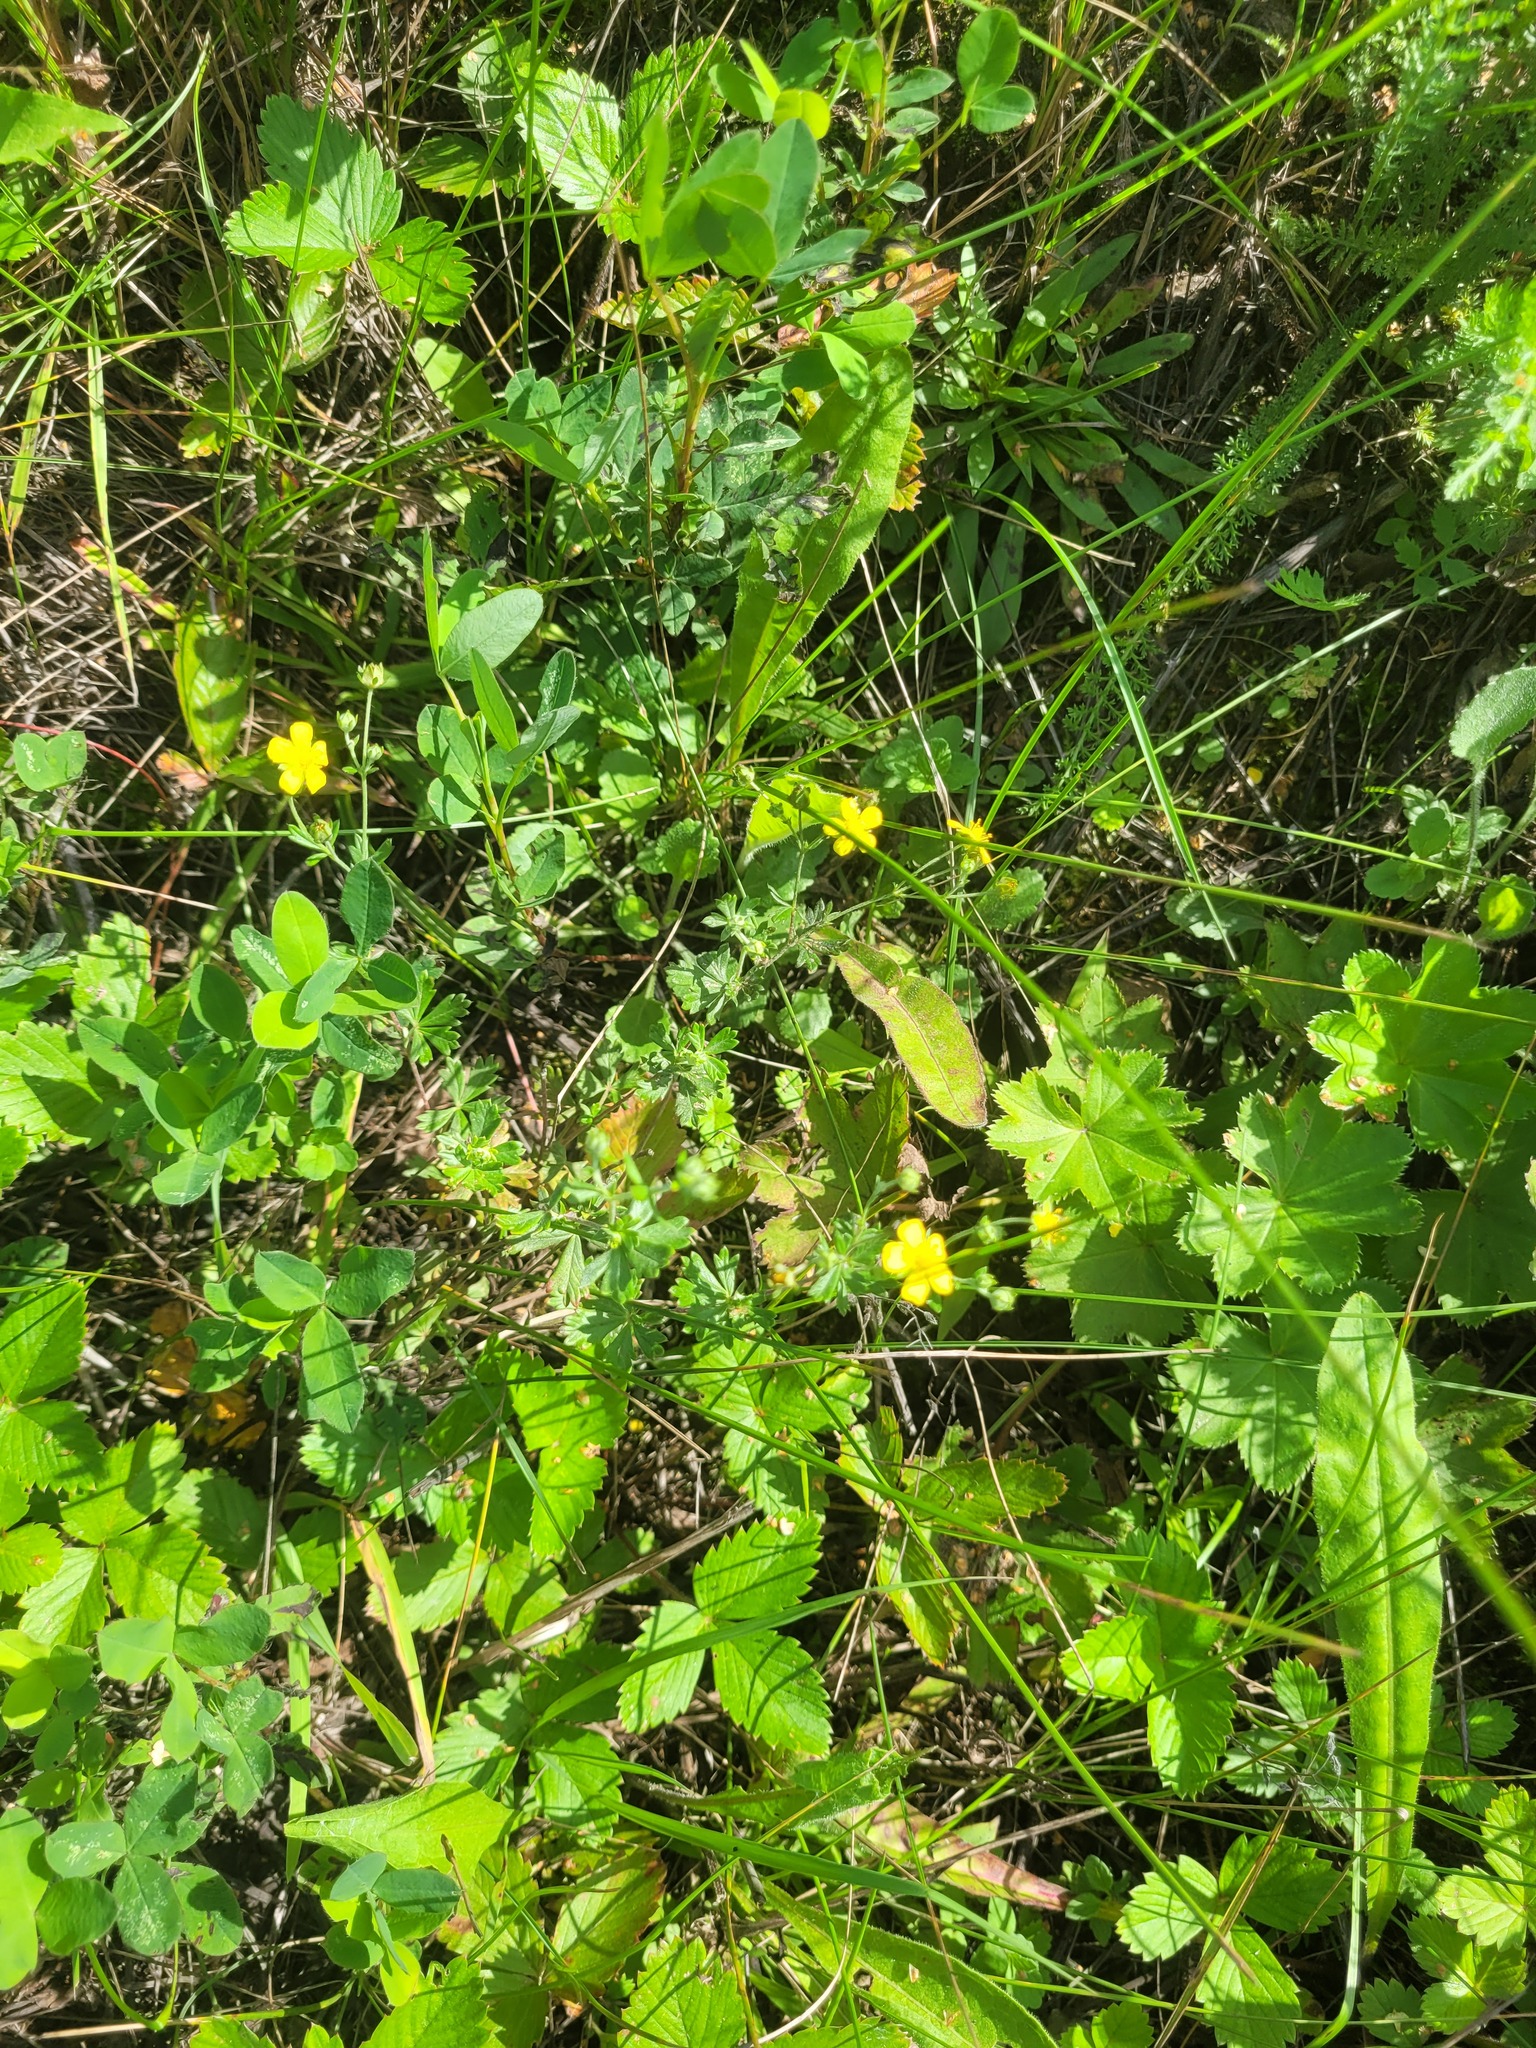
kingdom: Plantae
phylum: Tracheophyta
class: Magnoliopsida
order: Rosales
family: Rosaceae
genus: Potentilla
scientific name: Potentilla argentea
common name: Hoary cinquefoil
